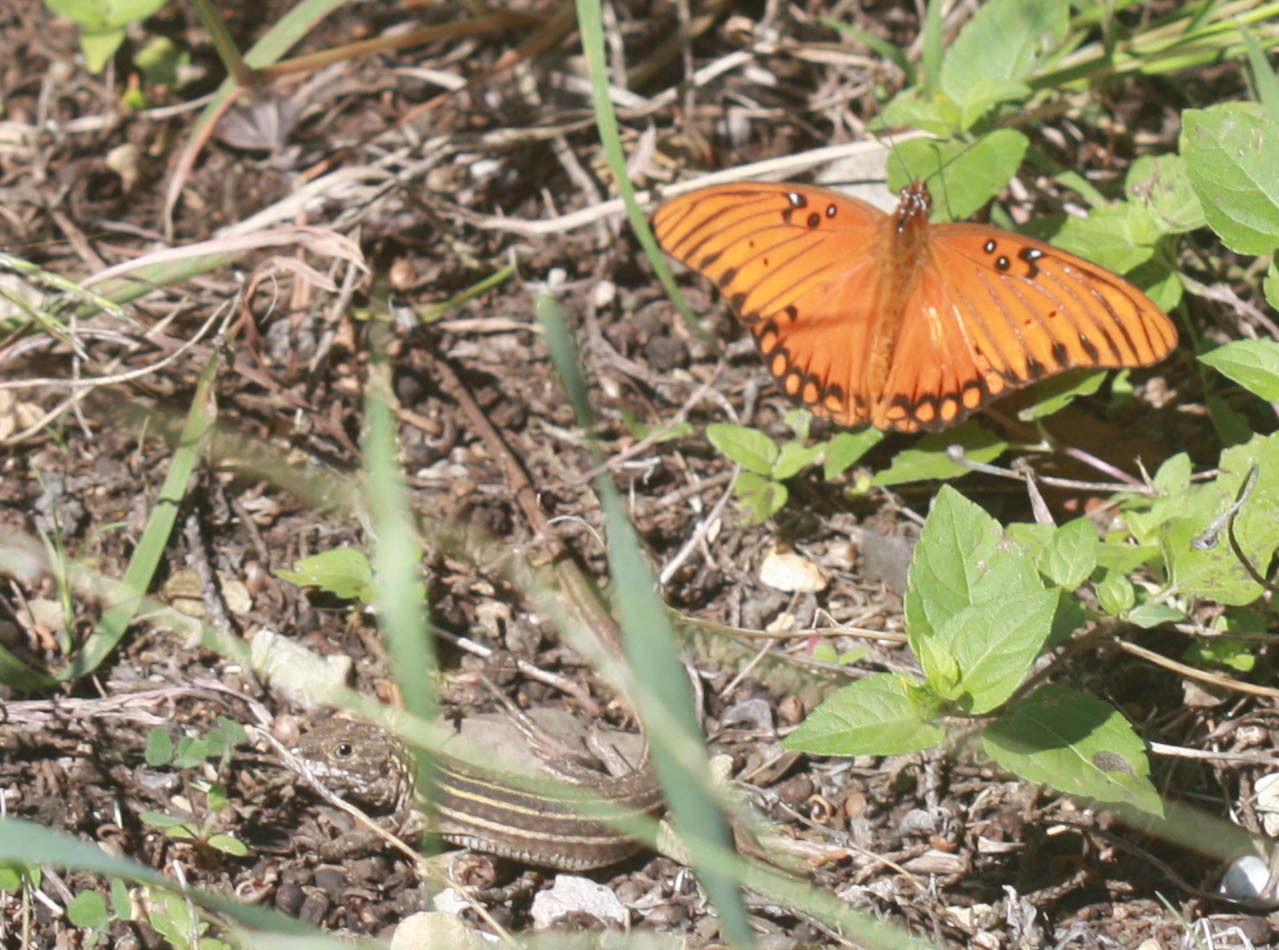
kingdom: Animalia
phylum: Chordata
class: Squamata
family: Teiidae
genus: Aspidoscelis
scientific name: Aspidoscelis gularis
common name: Eastern spotted whiptail
